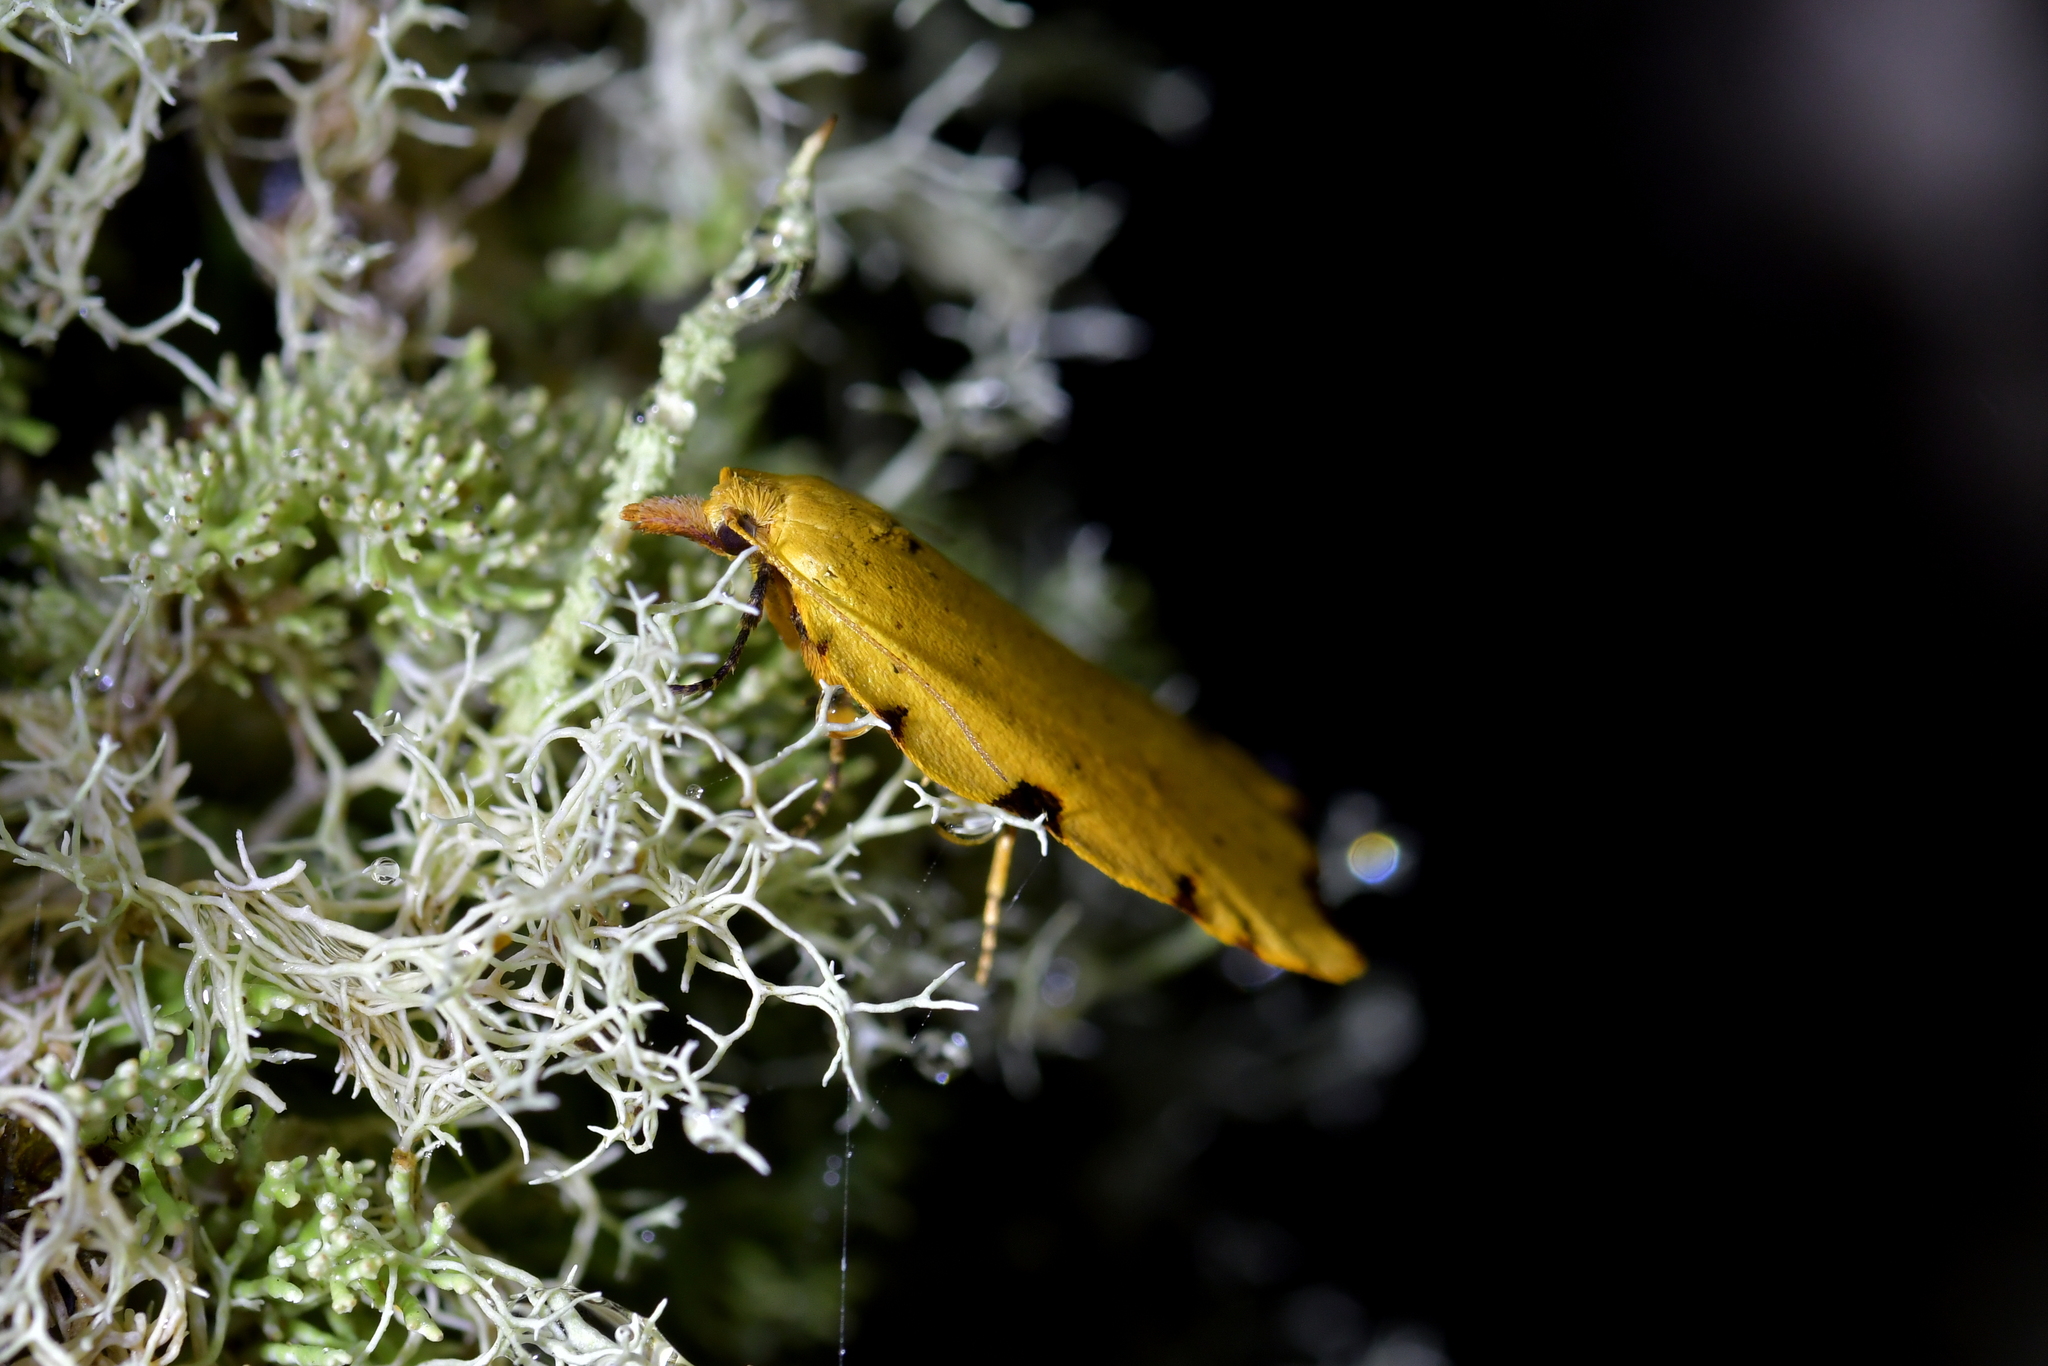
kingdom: Animalia
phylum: Arthropoda
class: Insecta
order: Lepidoptera
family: Tortricidae
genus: Apoctena
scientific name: Apoctena flavescens
